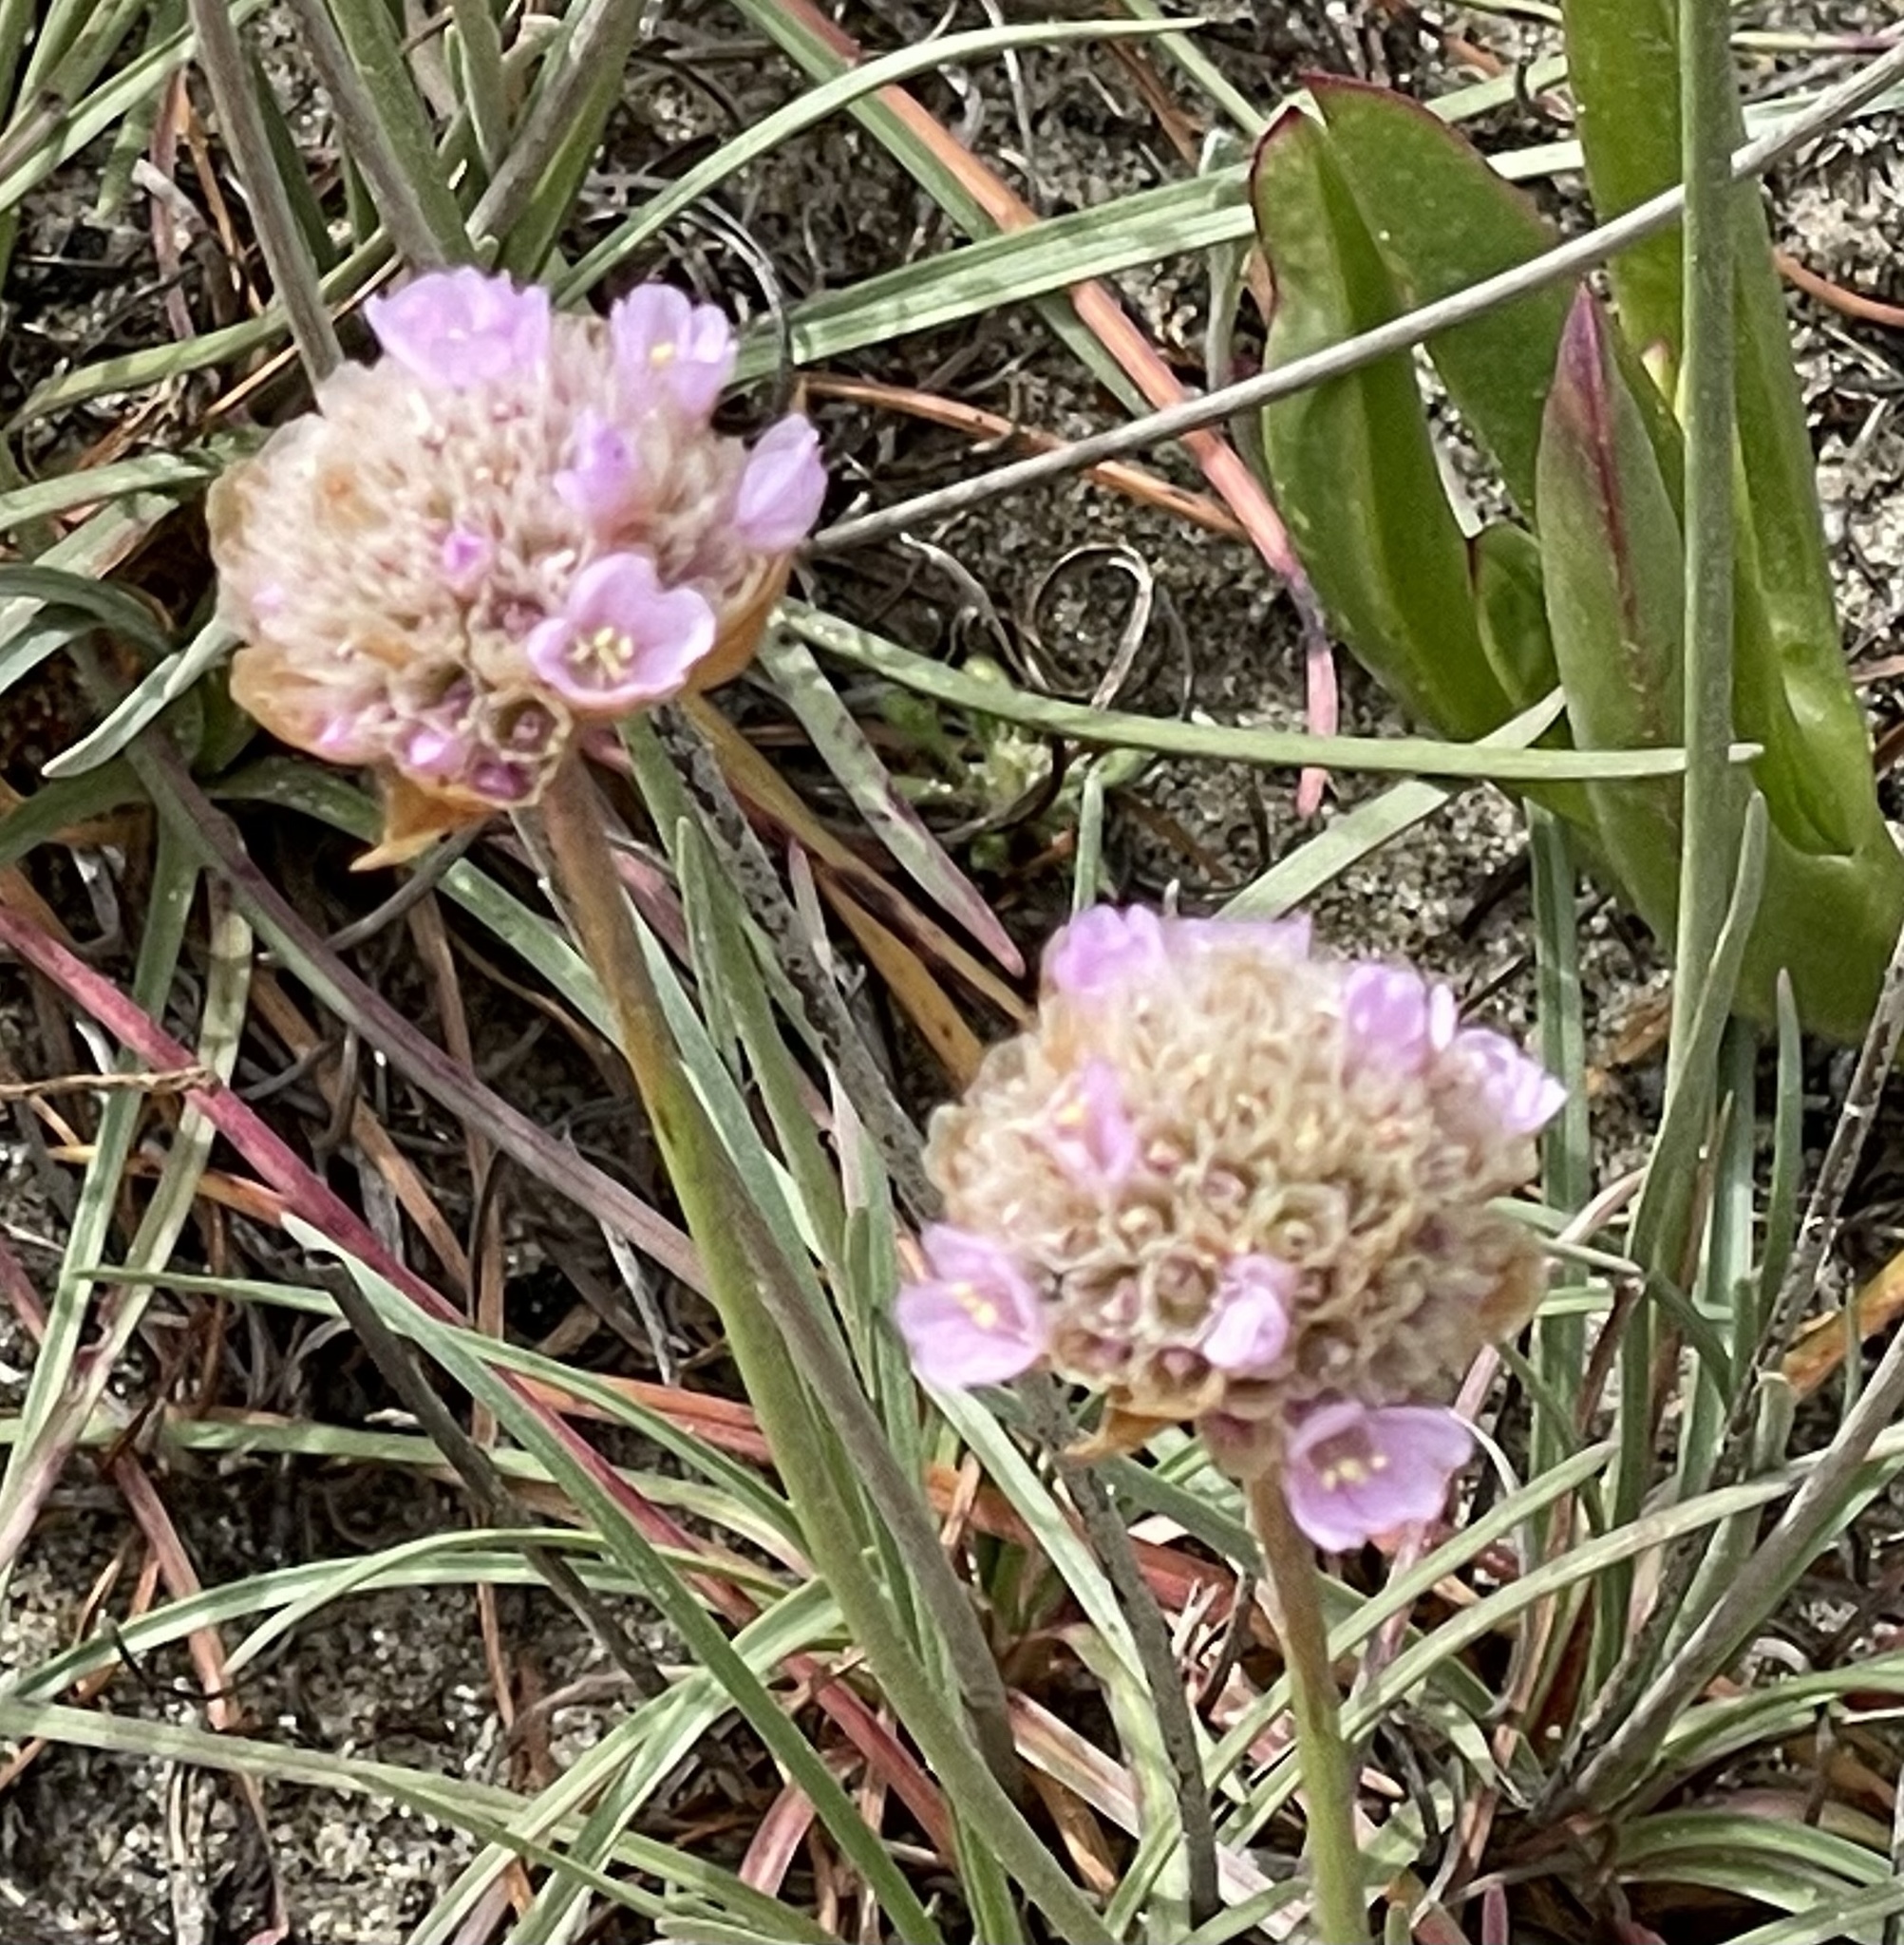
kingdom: Plantae
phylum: Tracheophyta
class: Magnoliopsida
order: Caryophyllales
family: Plumbaginaceae
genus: Armeria
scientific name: Armeria maritima
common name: Thrift
